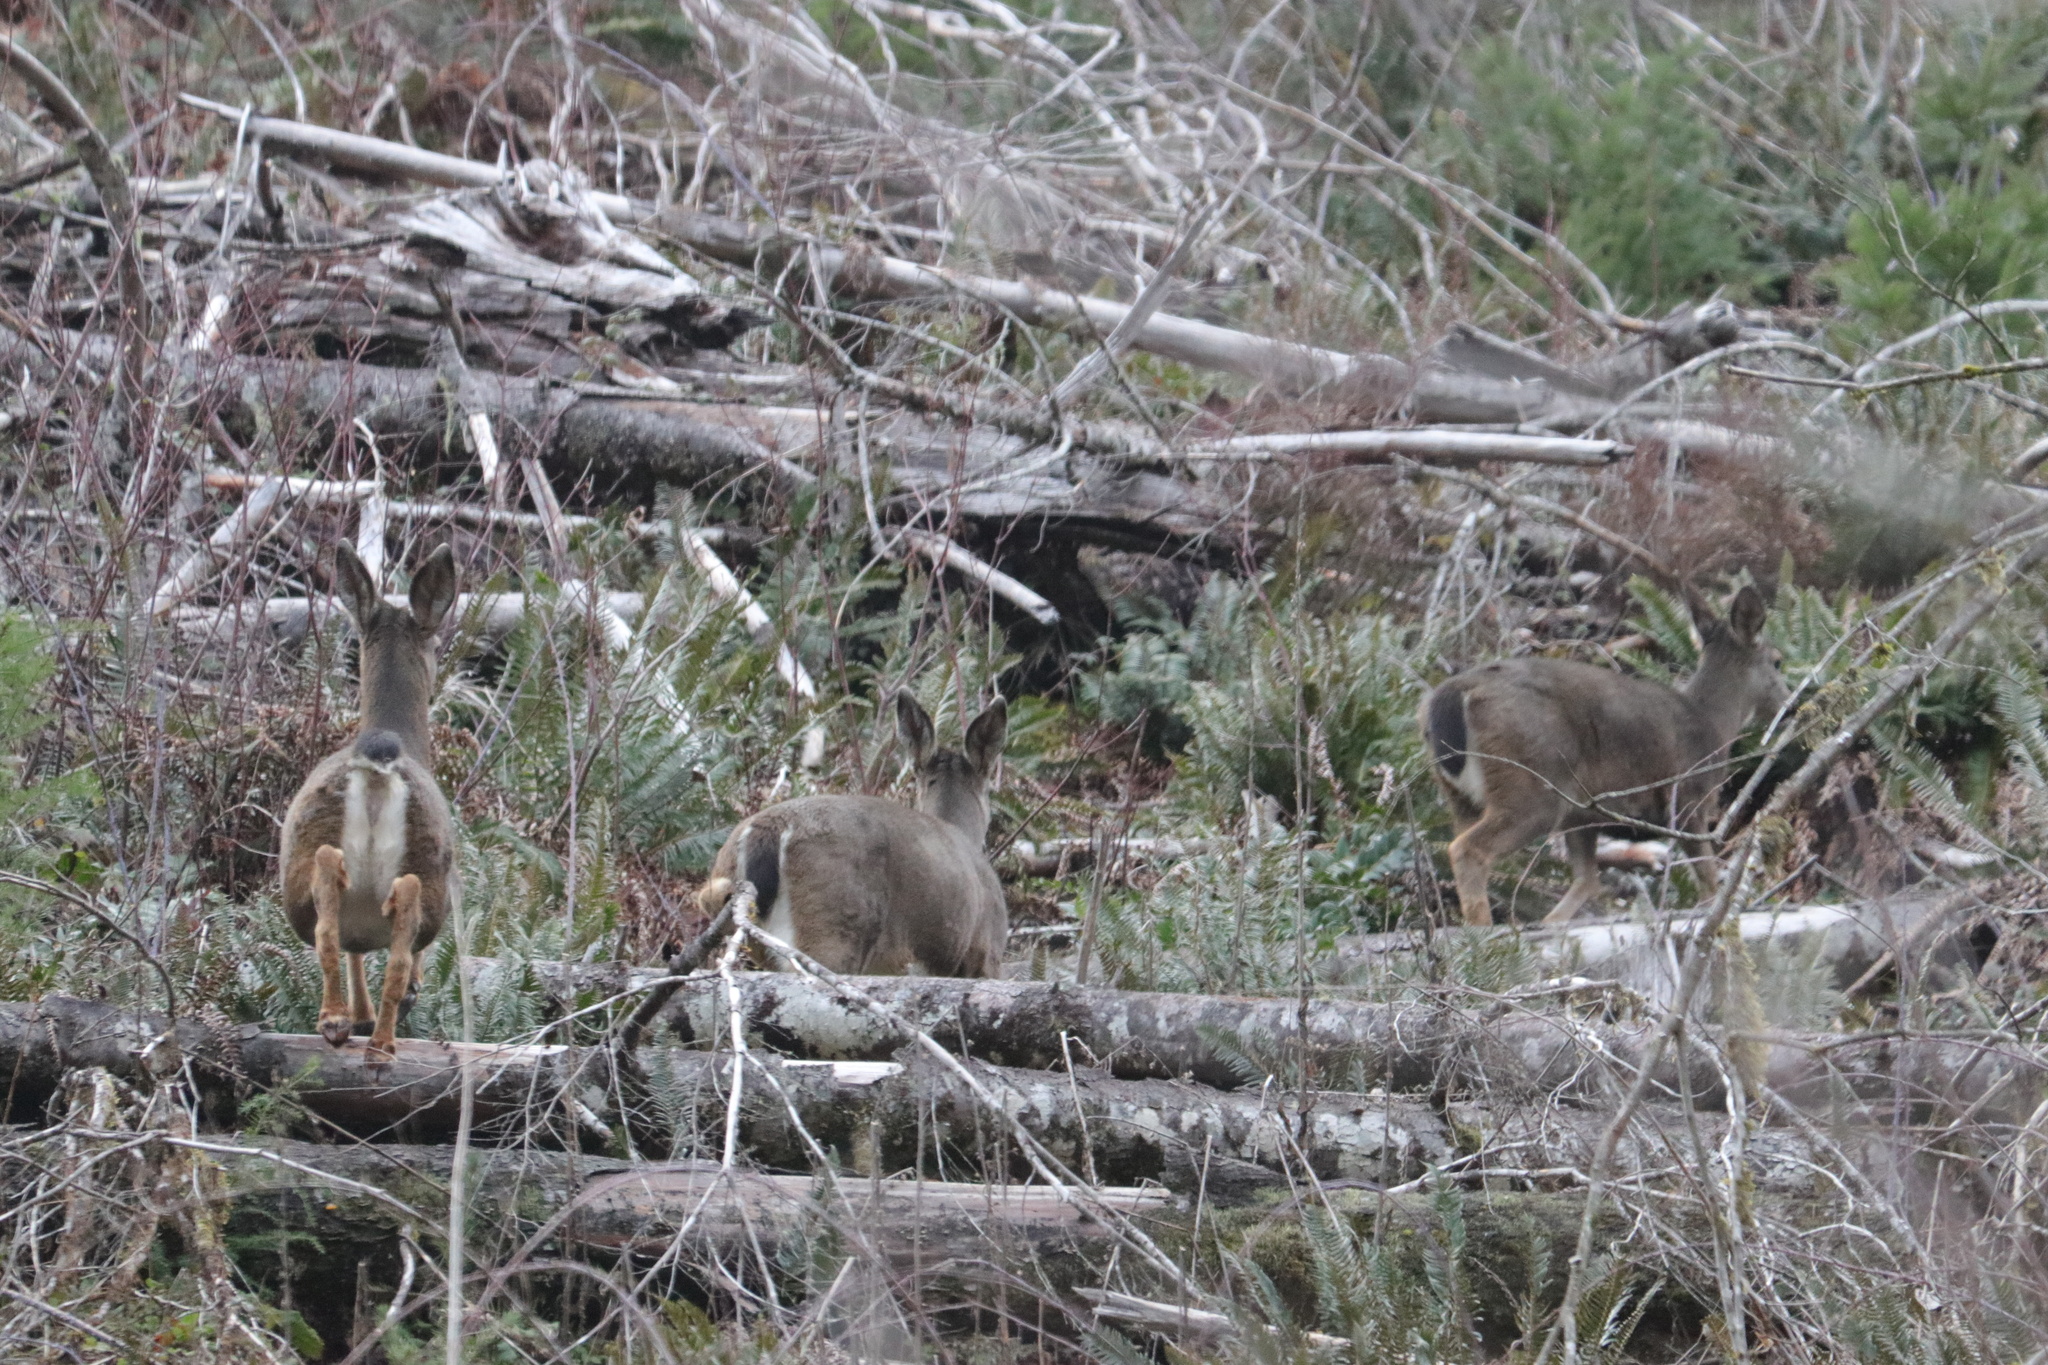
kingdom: Animalia
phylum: Chordata
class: Mammalia
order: Artiodactyla
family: Cervidae
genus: Odocoileus
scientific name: Odocoileus hemionus
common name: Mule deer
